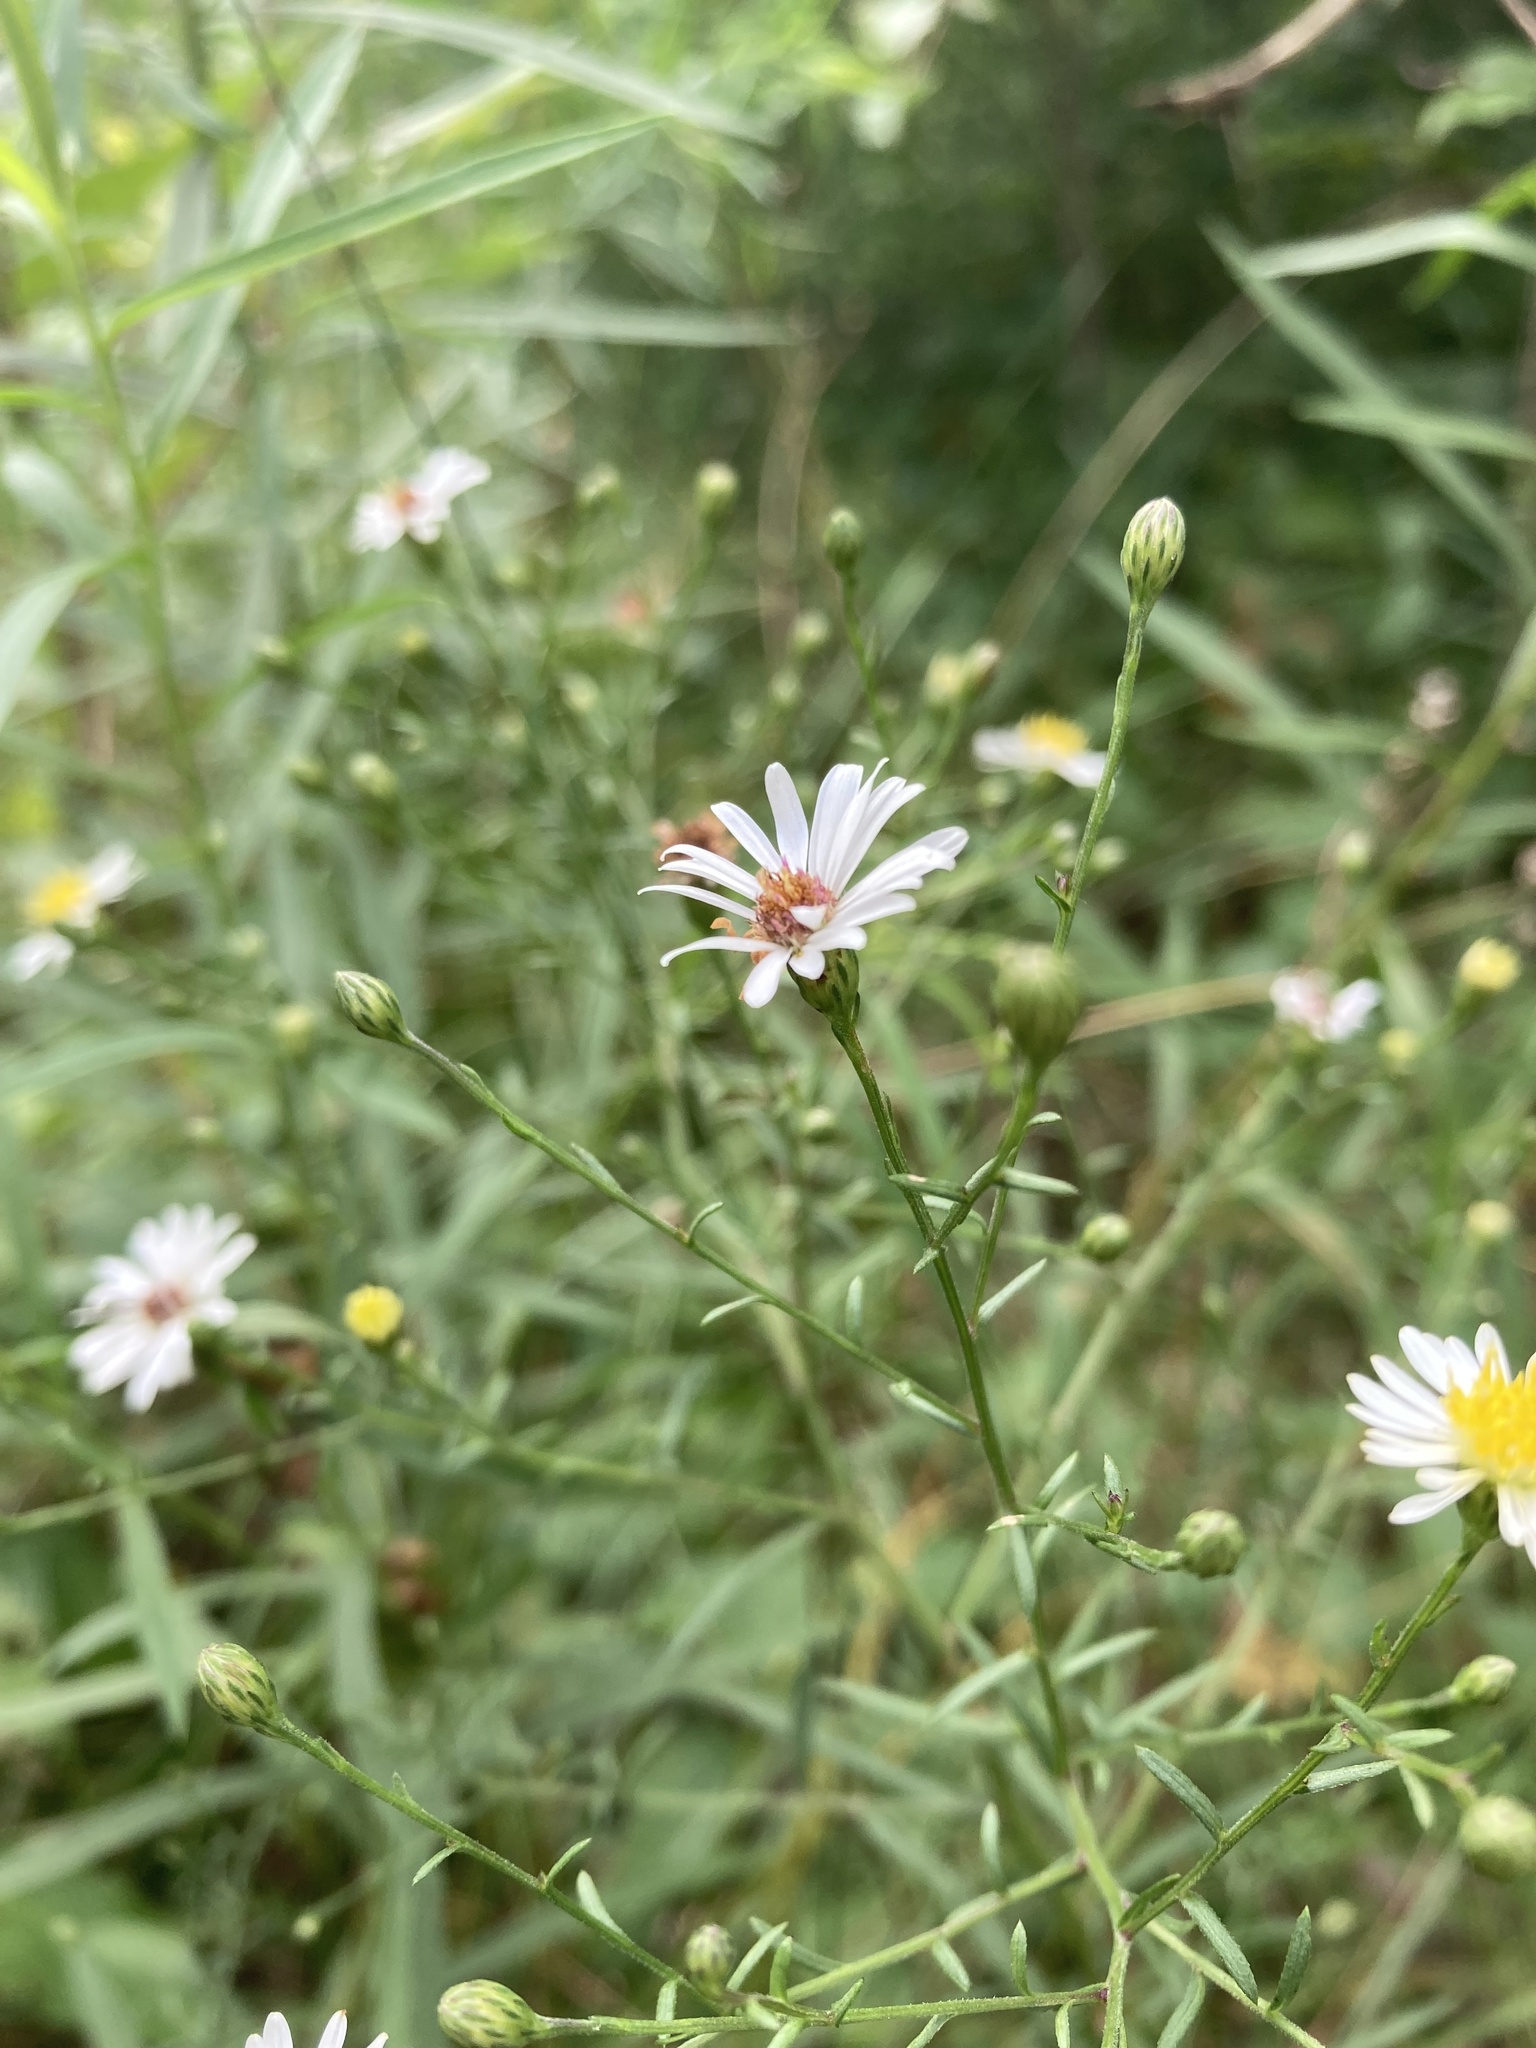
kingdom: Plantae
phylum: Tracheophyta
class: Magnoliopsida
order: Asterales
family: Asteraceae
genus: Symphyotrichum
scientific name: Symphyotrichum dumosum
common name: Bushy aster
